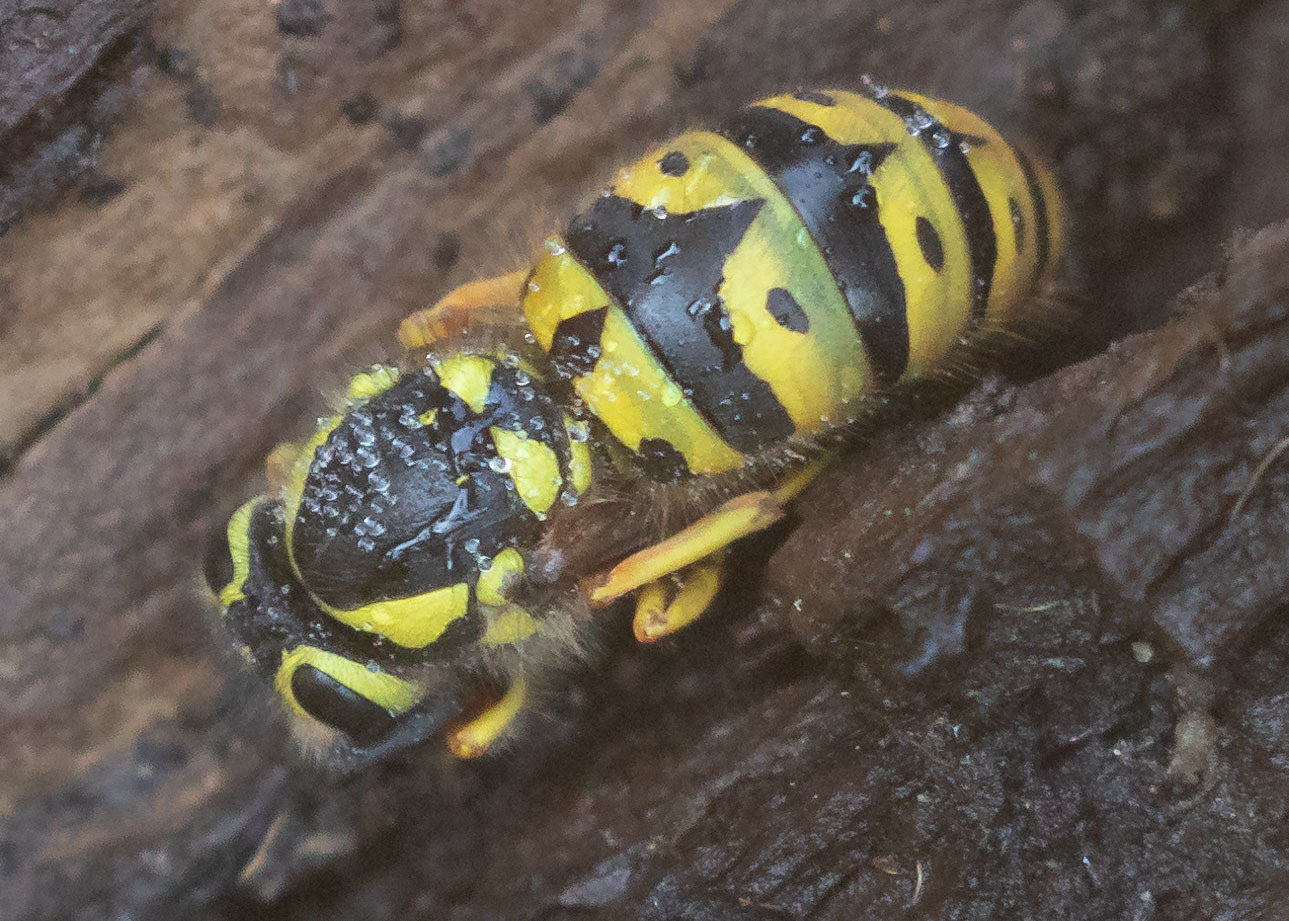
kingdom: Animalia
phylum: Arthropoda
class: Insecta
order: Hymenoptera
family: Vespidae
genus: Vespula
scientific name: Vespula pensylvanica
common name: Western yellowjacket
